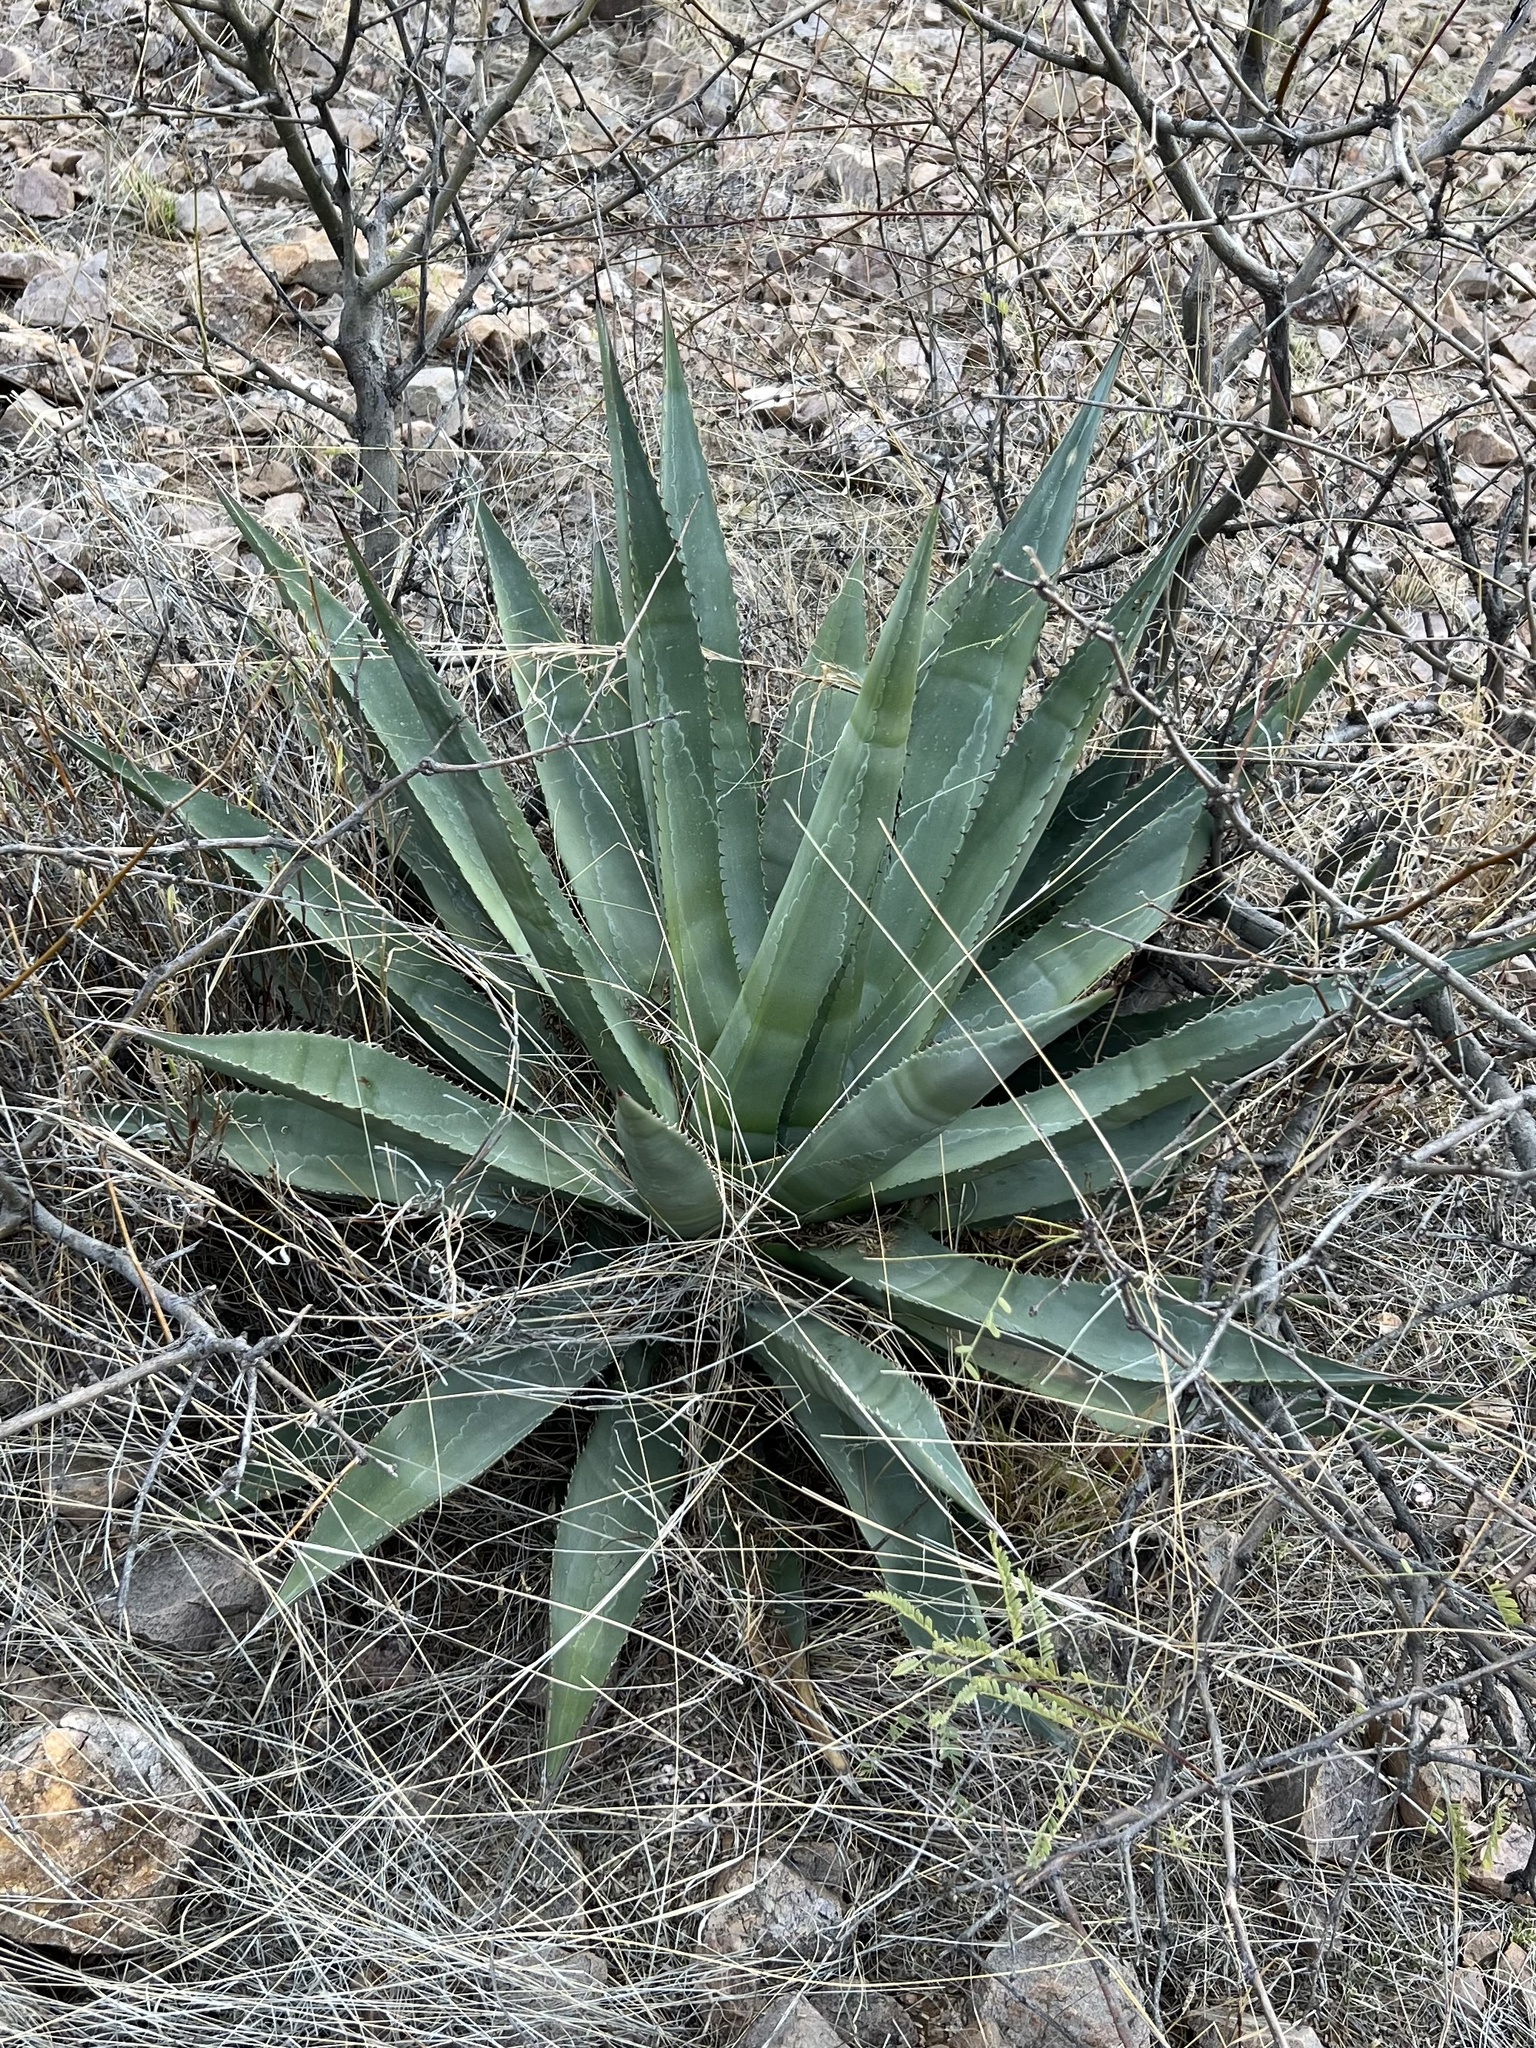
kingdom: Plantae
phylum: Tracheophyta
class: Liliopsida
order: Asparagales
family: Asparagaceae
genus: Agave
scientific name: Agave palmeri
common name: Palmer agave
